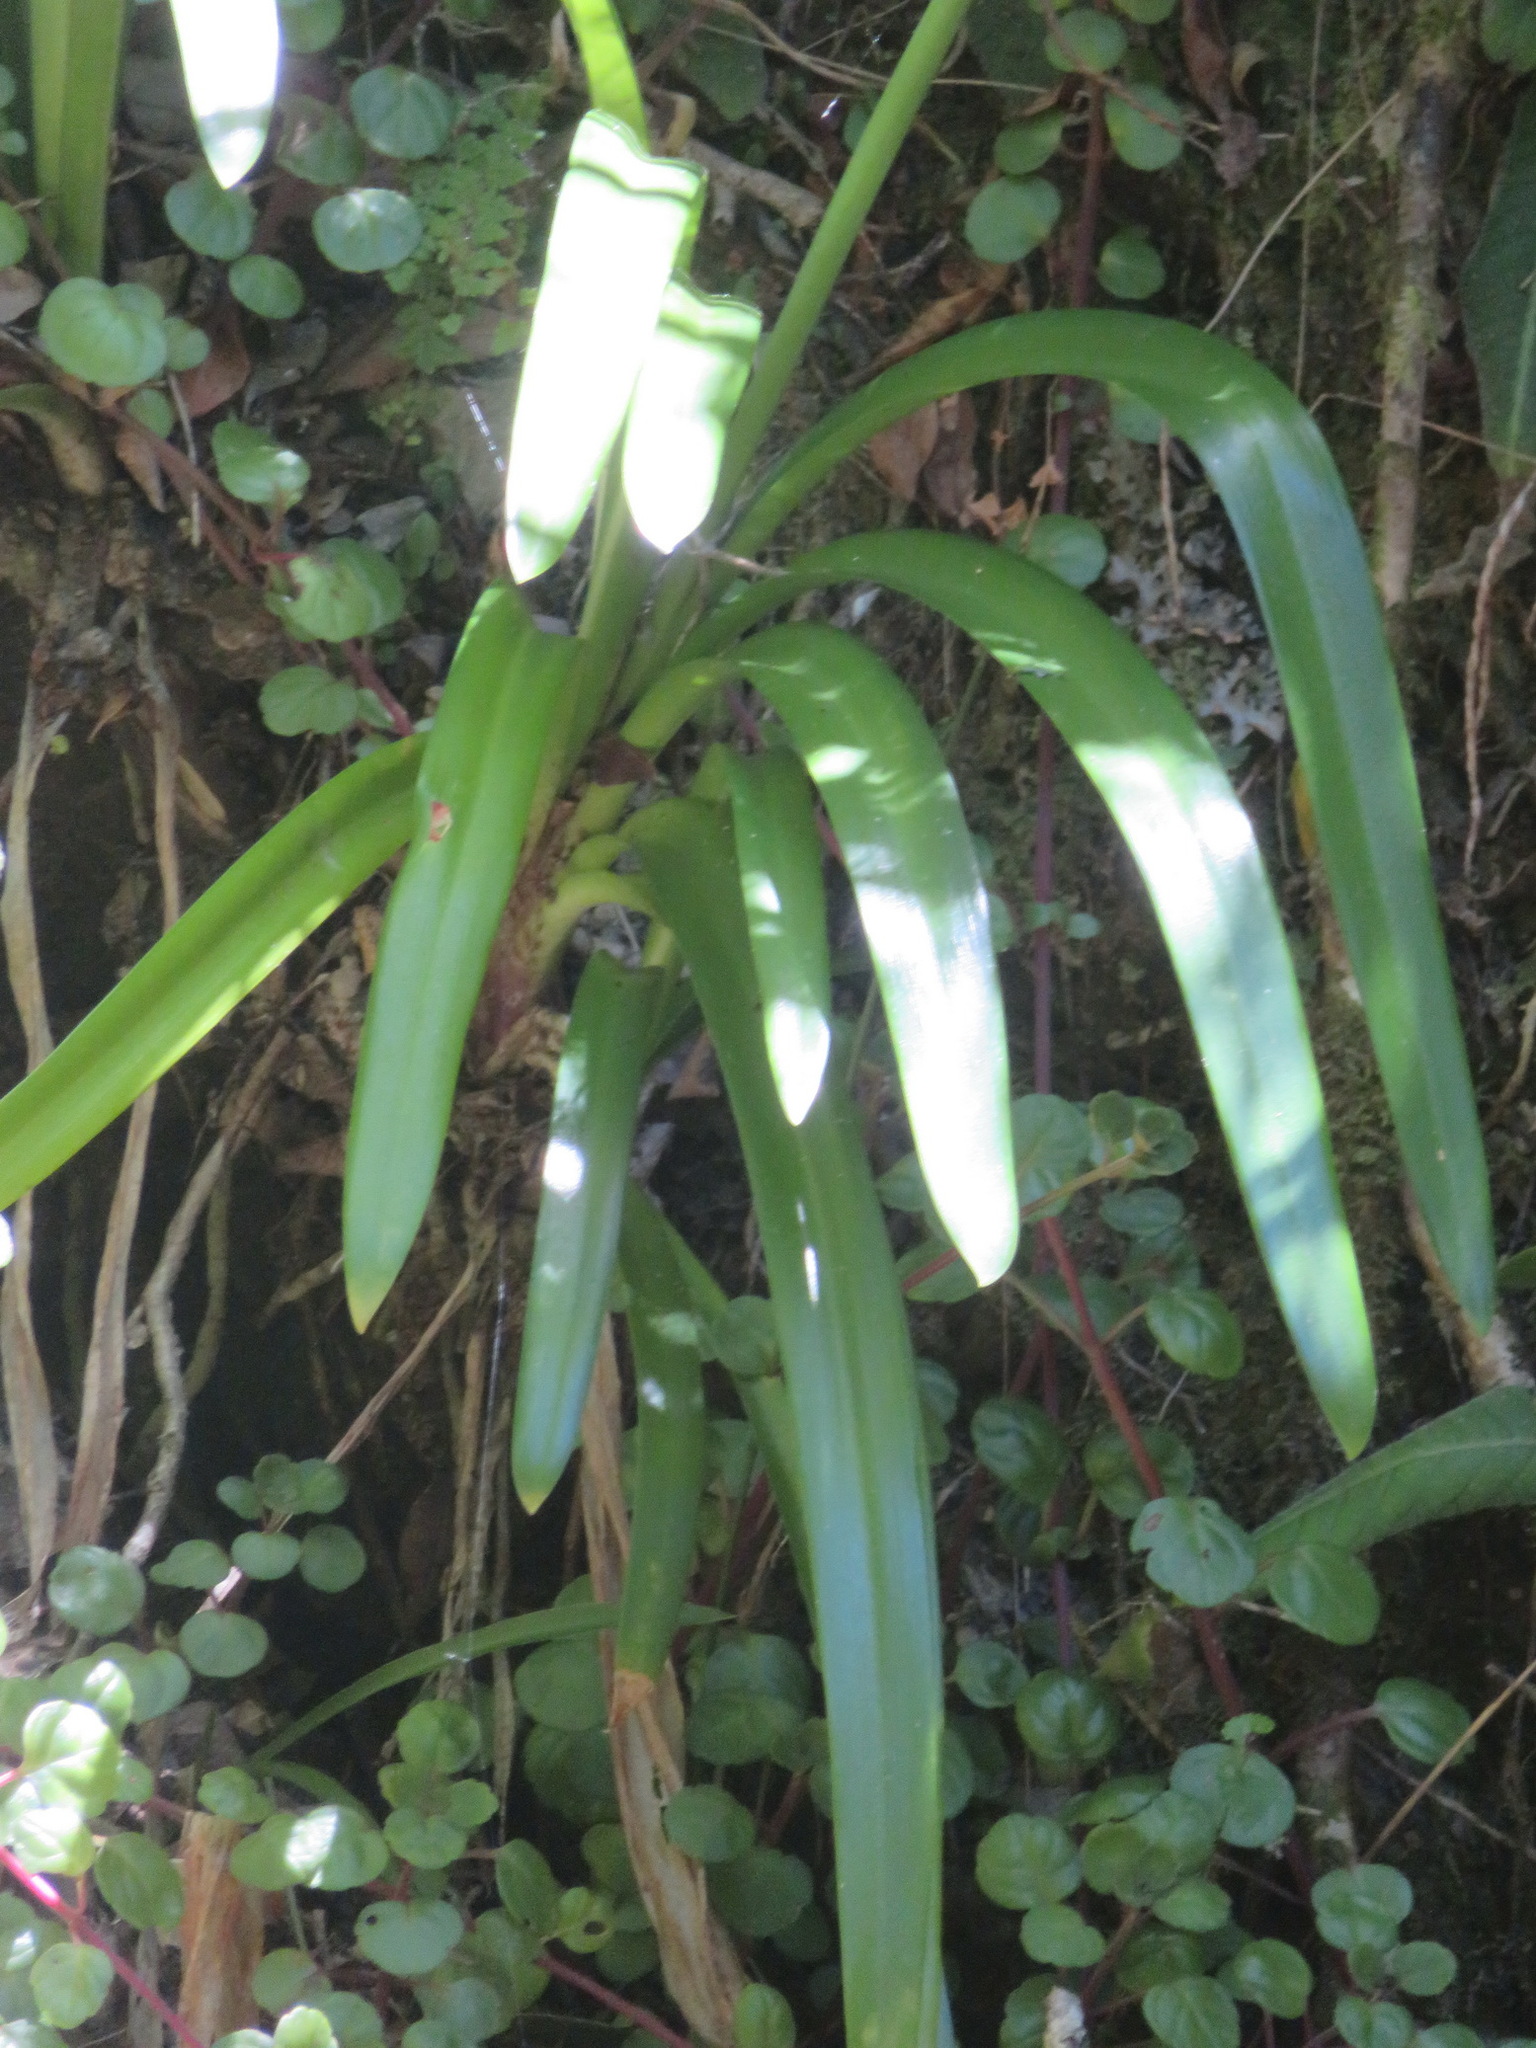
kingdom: Plantae
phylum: Tracheophyta
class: Liliopsida
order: Asparagales
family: Amaryllidaceae
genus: Agapanthus
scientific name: Agapanthus praecox
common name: African-lily
